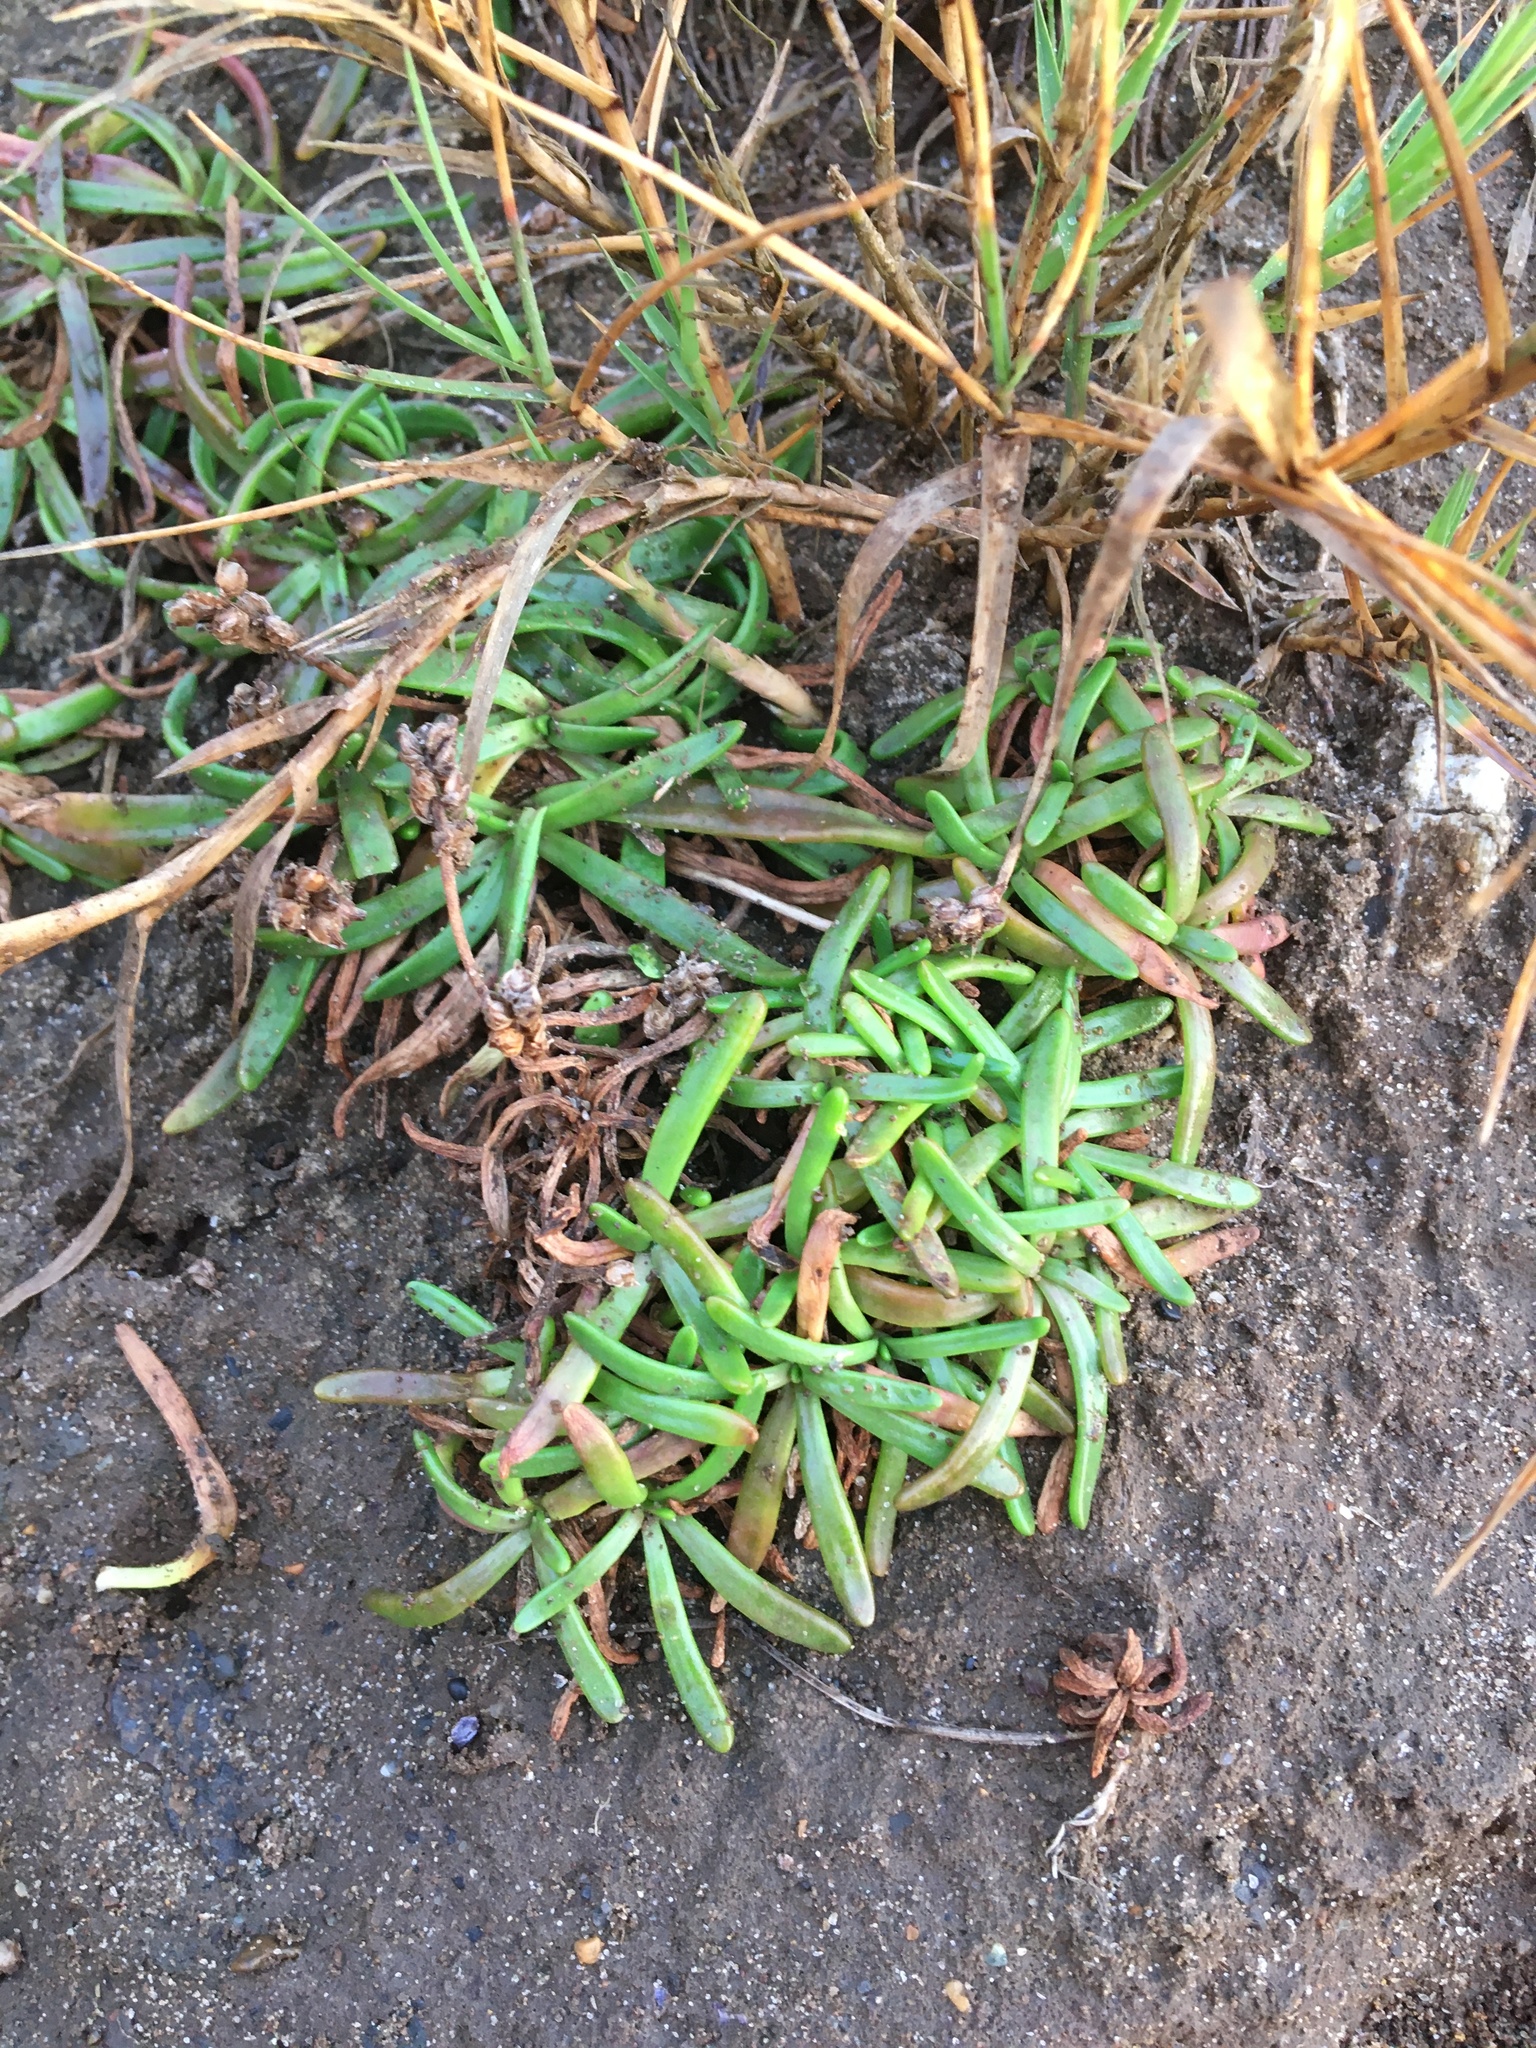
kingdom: Plantae
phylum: Tracheophyta
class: Magnoliopsida
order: Lamiales
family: Plantaginaceae
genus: Plantago
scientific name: Plantago maritima
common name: Sea plantain
